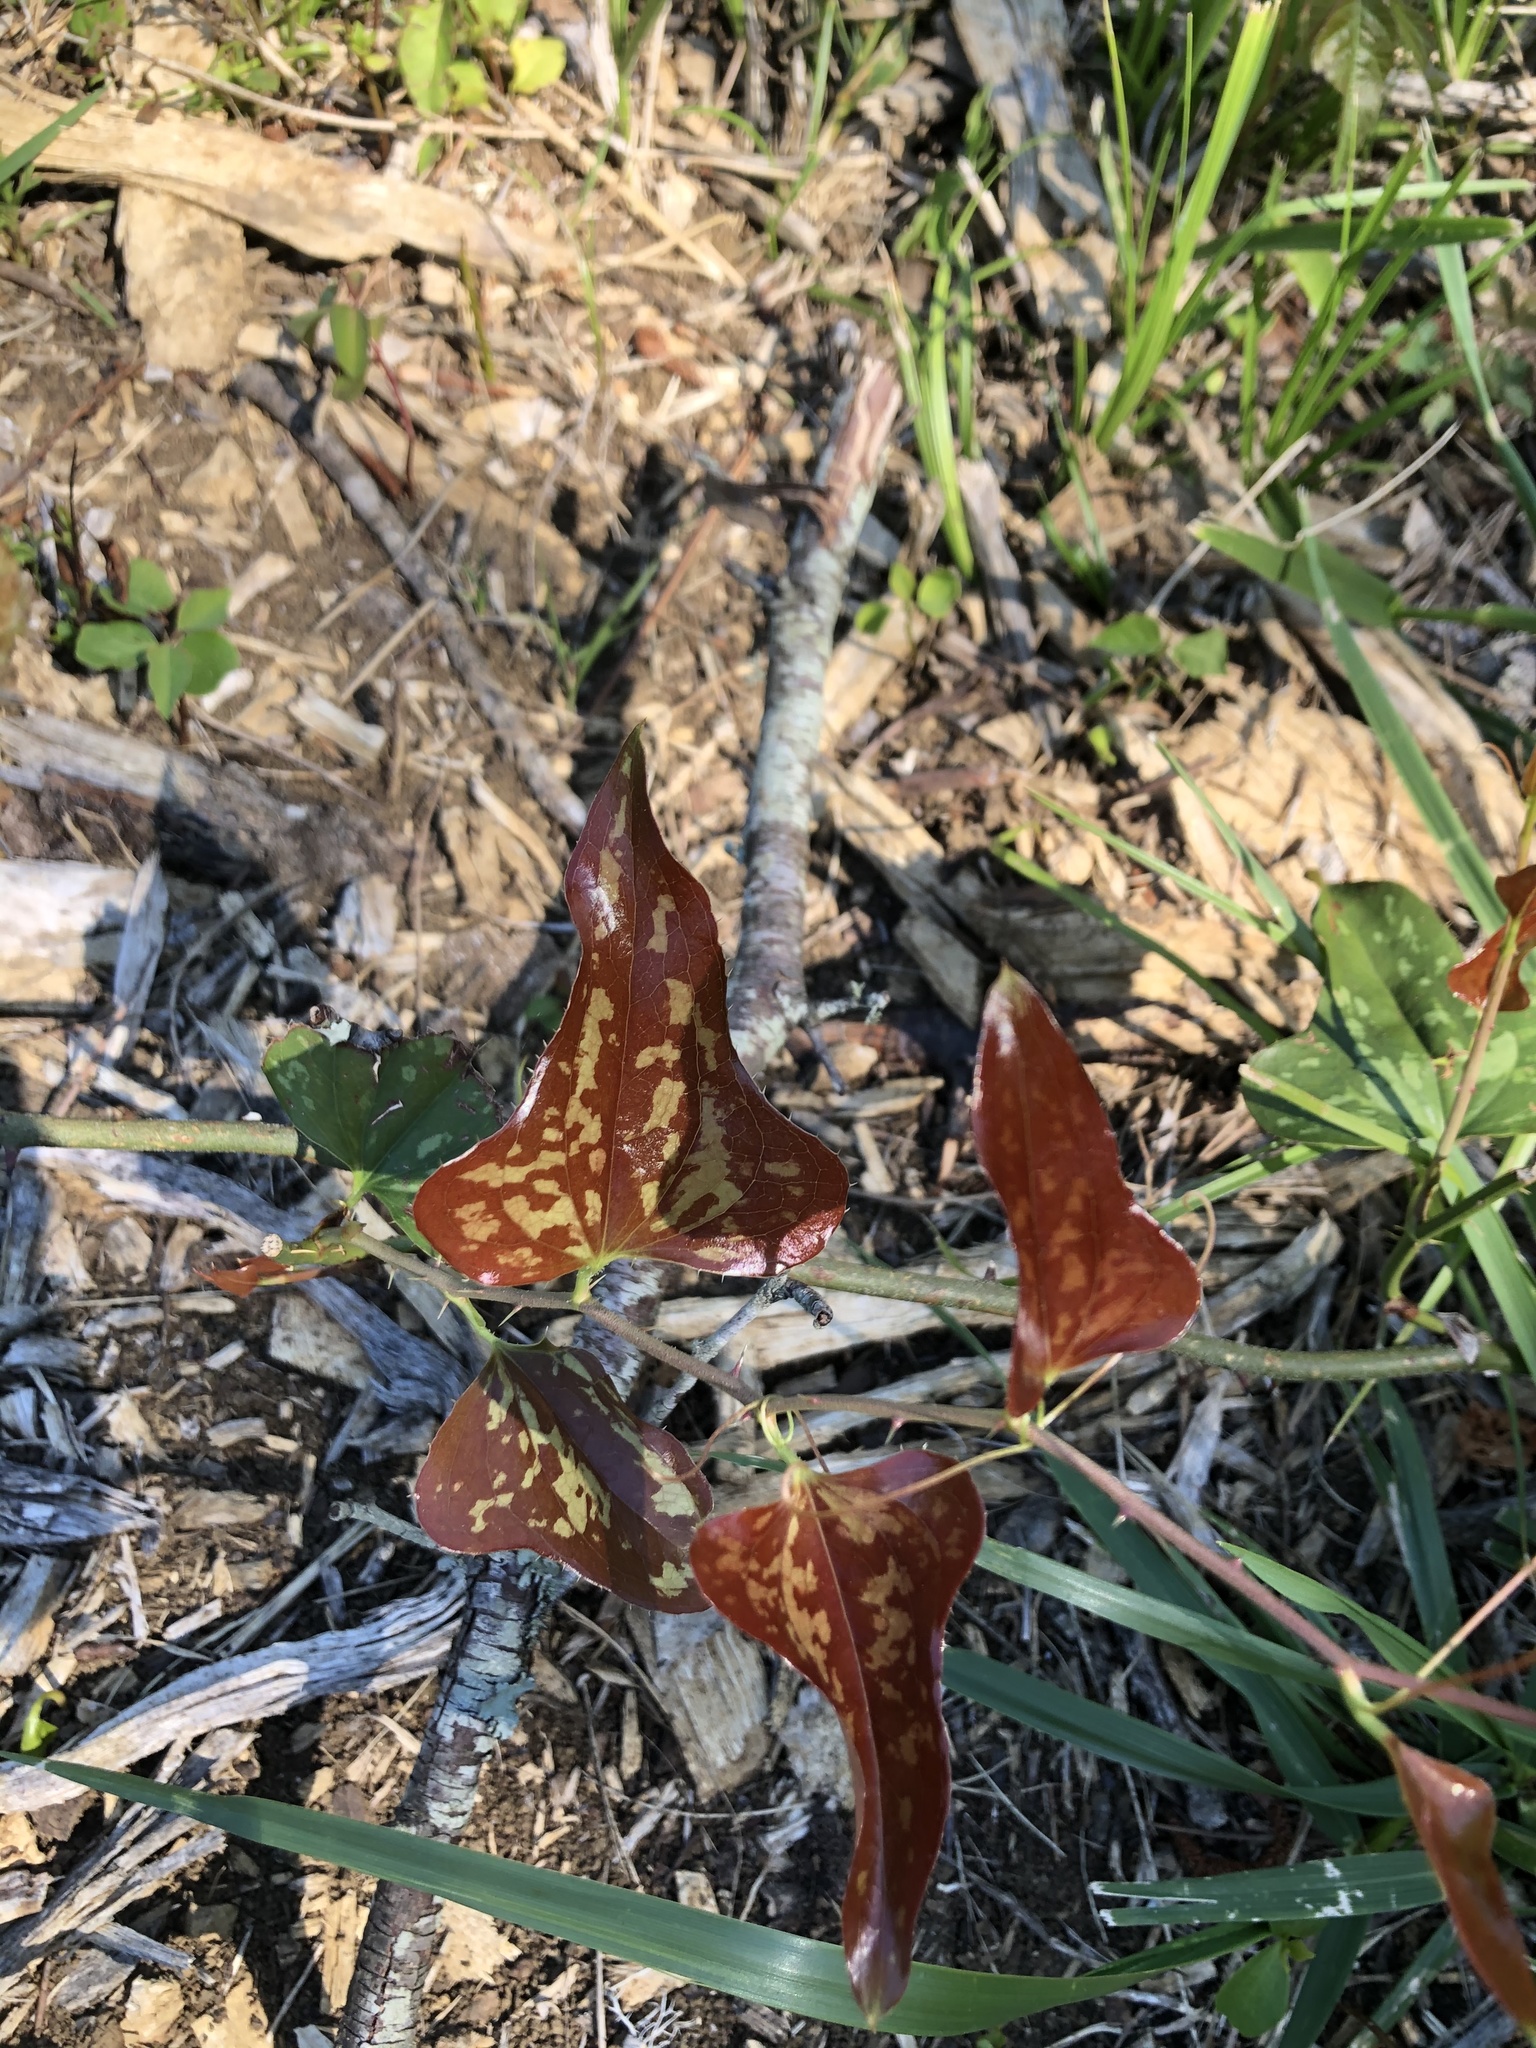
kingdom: Plantae
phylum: Tracheophyta
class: Liliopsida
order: Liliales
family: Smilacaceae
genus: Smilax
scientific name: Smilax bona-nox
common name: Catbrier
